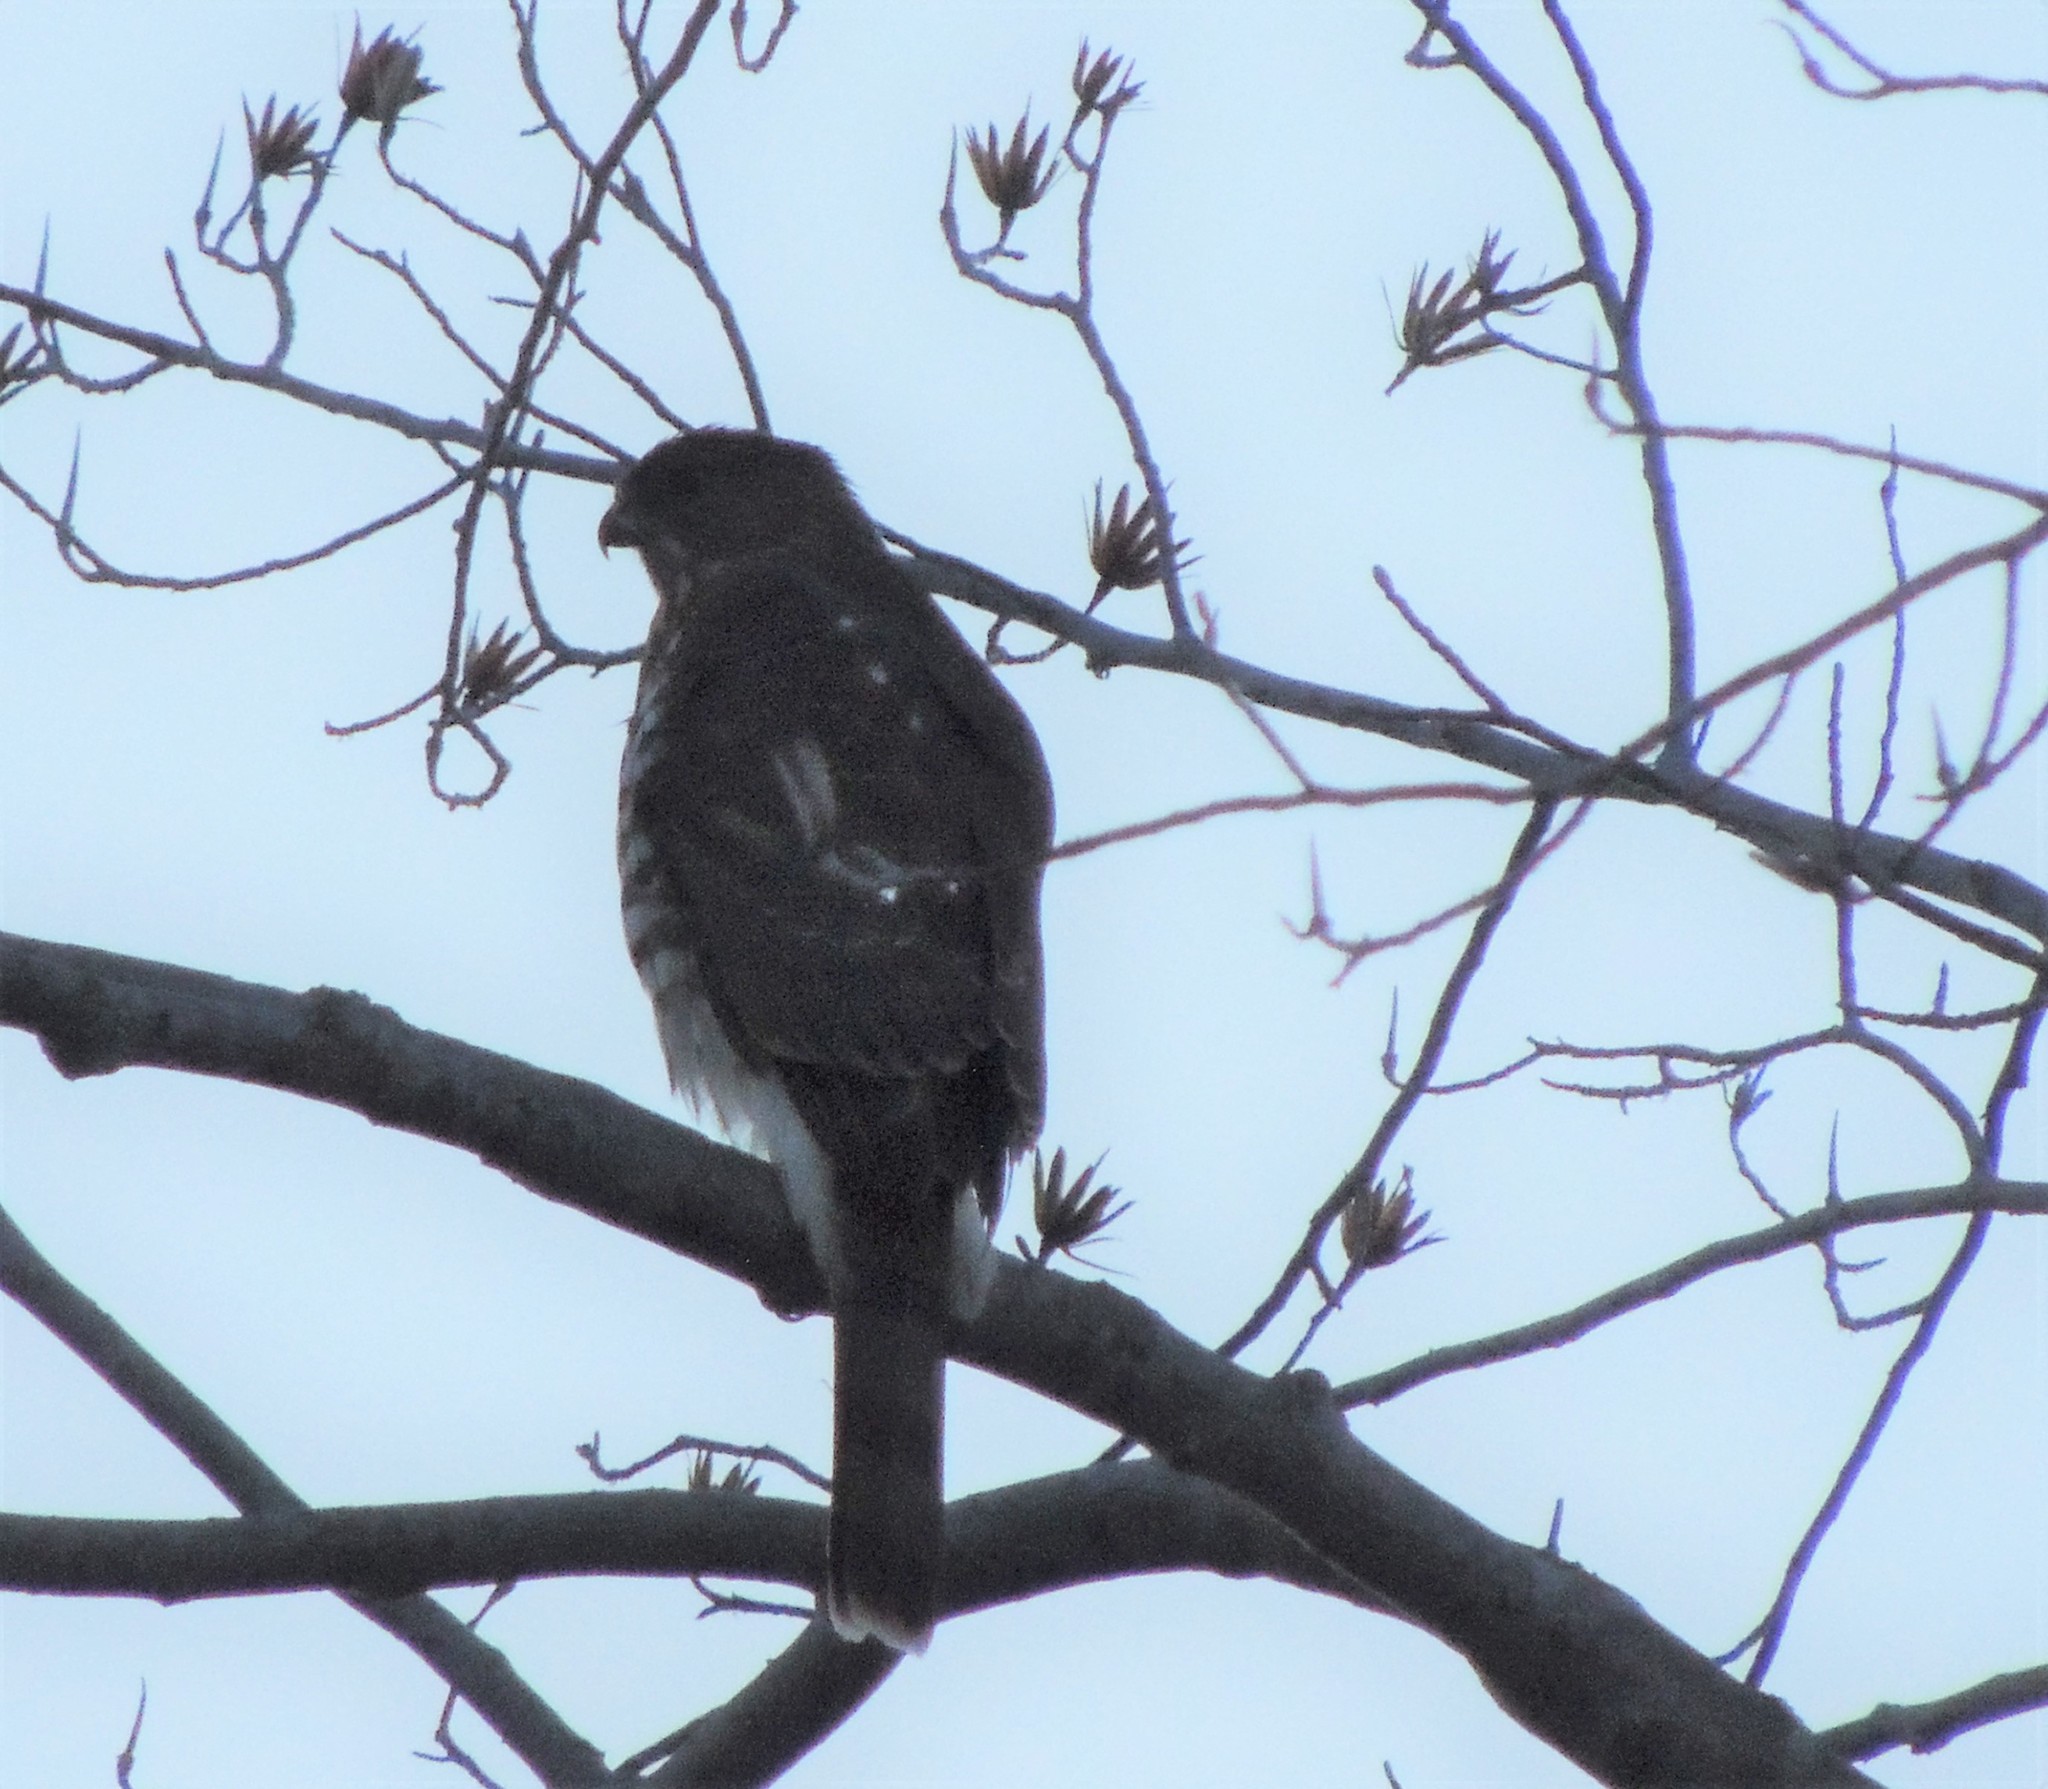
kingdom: Animalia
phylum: Chordata
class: Aves
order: Accipitriformes
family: Accipitridae
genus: Accipiter
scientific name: Accipiter cooperii
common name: Cooper's hawk
